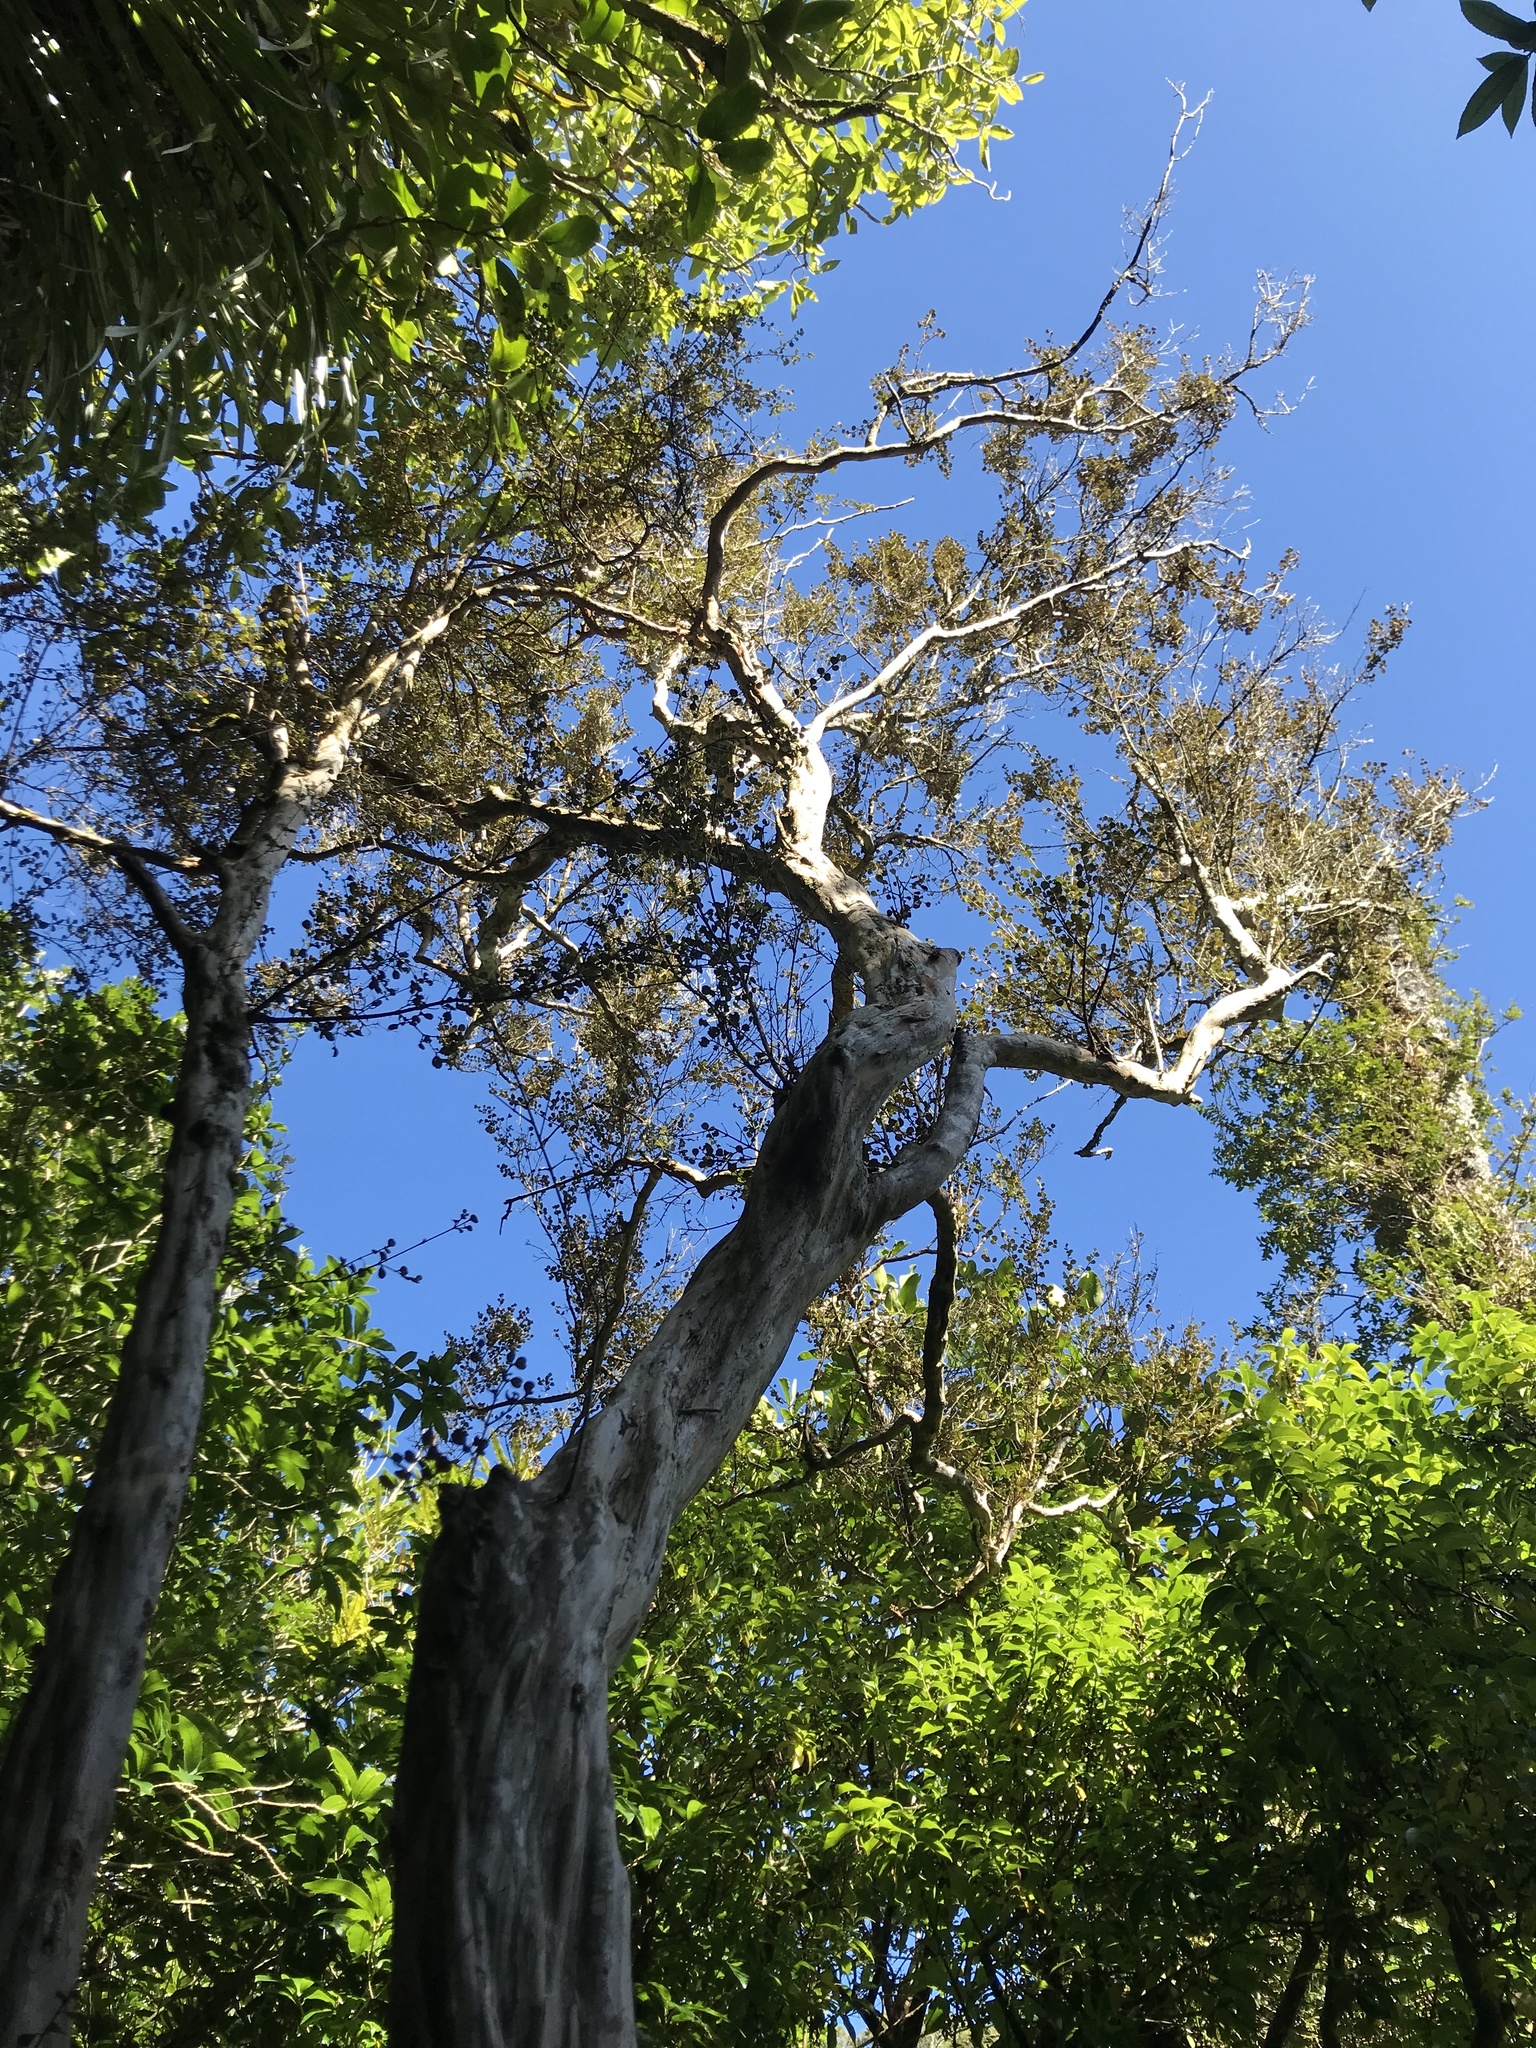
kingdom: Plantae
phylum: Tracheophyta
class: Magnoliopsida
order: Myrtales
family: Myrtaceae
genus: Lophomyrtus
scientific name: Lophomyrtus obcordata
